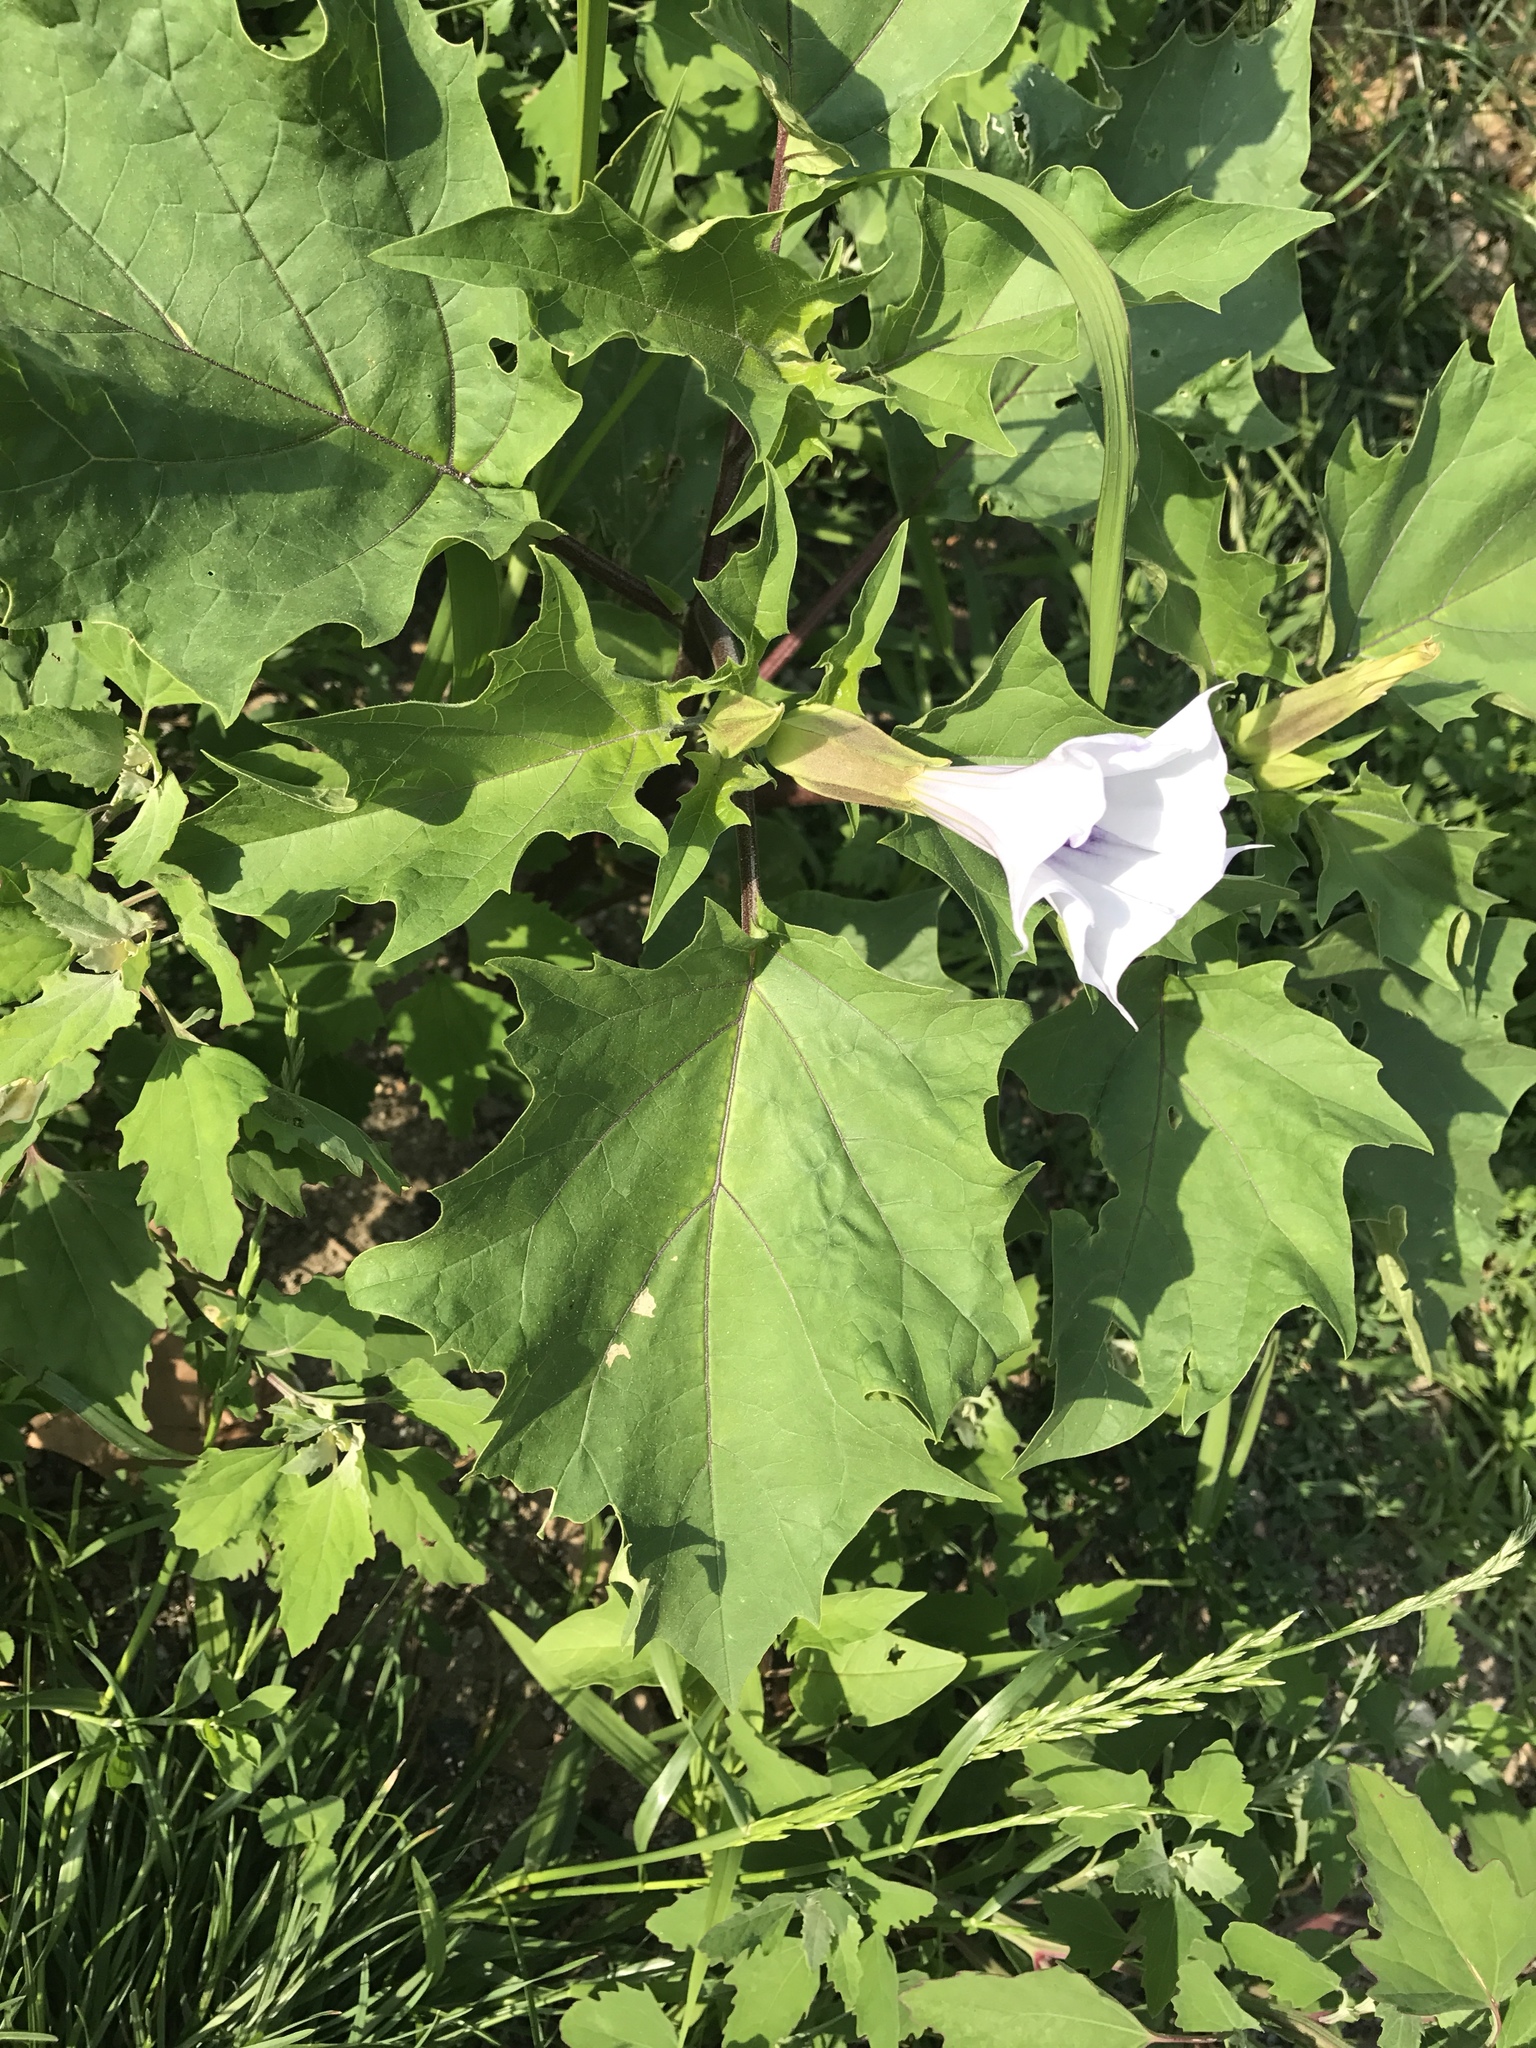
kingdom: Plantae
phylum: Tracheophyta
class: Magnoliopsida
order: Solanales
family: Solanaceae
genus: Datura
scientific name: Datura stramonium
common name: Thorn-apple
